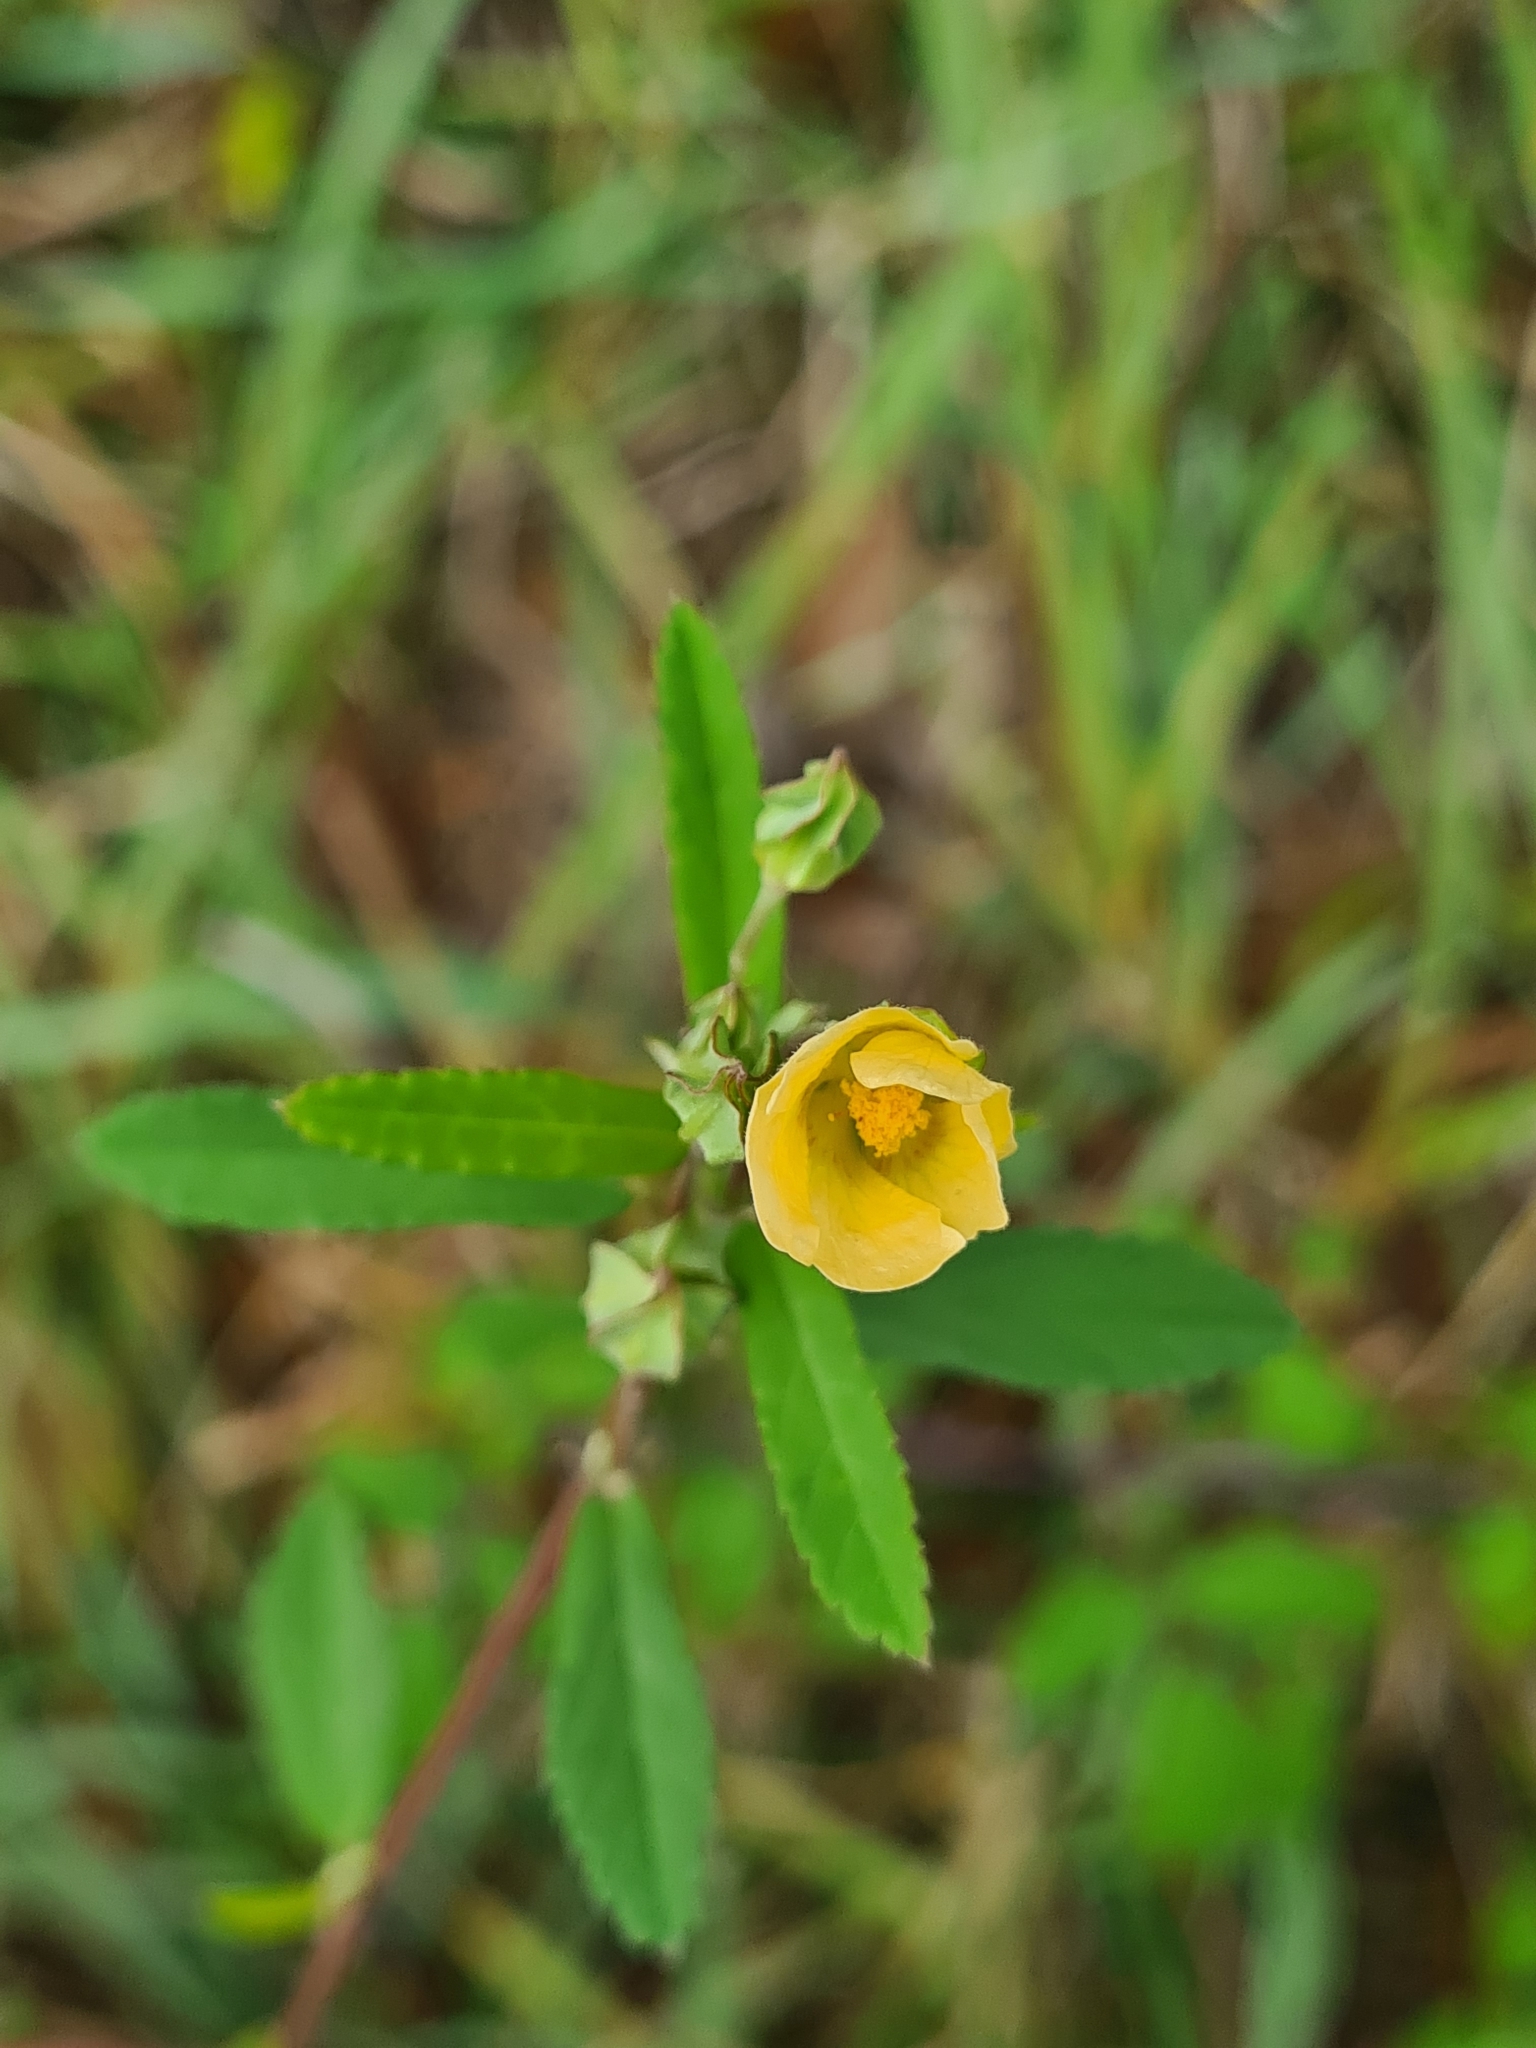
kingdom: Plantae
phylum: Tracheophyta
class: Magnoliopsida
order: Malvales
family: Malvaceae
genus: Sida
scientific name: Sida rhombifolia
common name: Queensland-hemp
